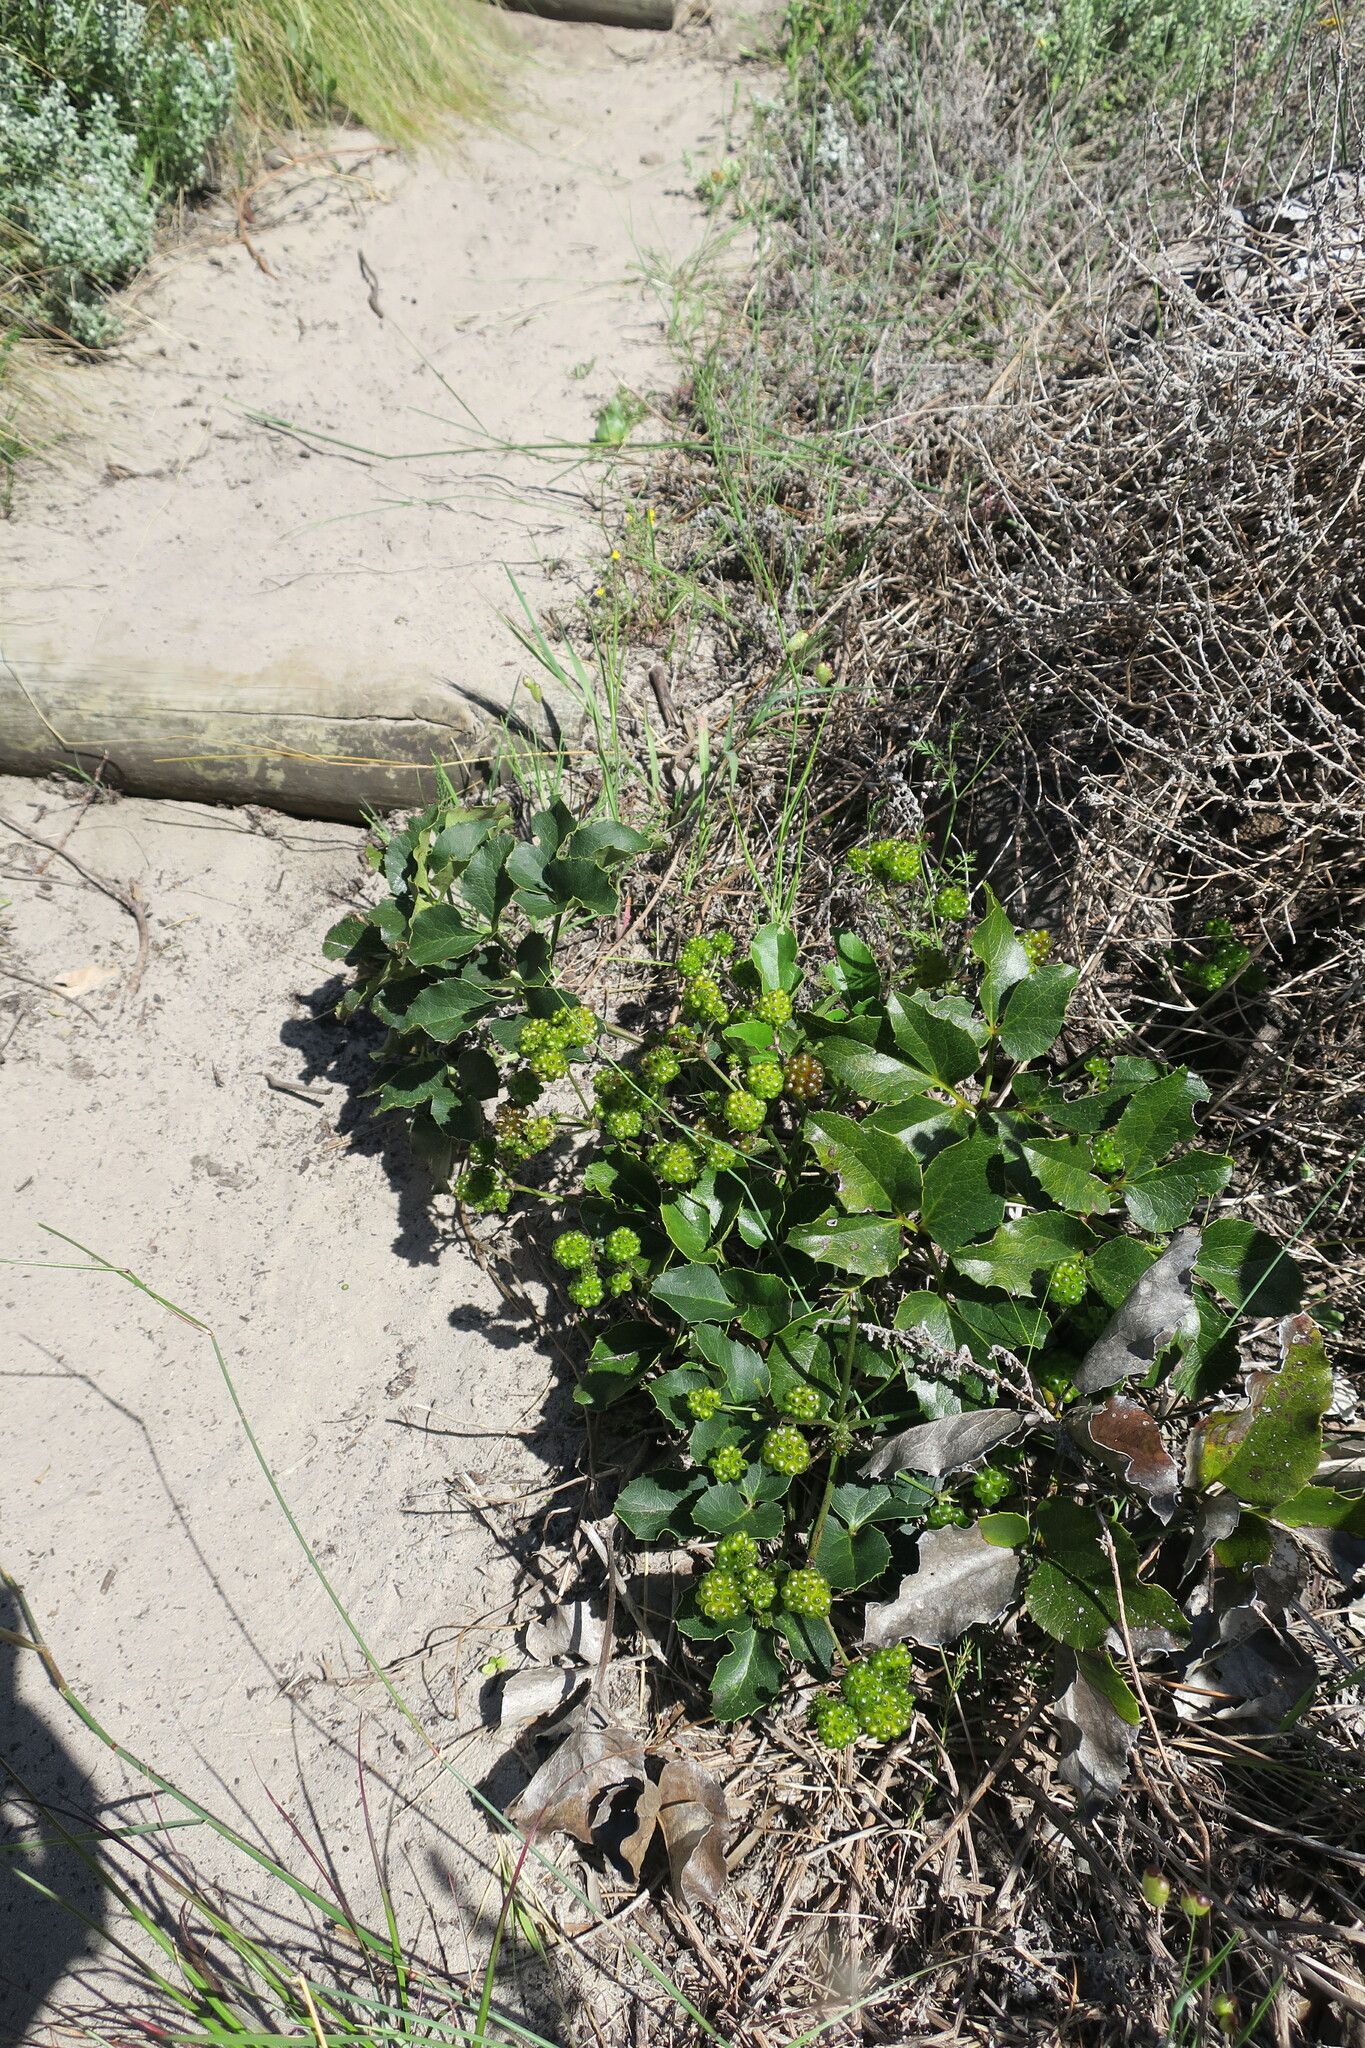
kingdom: Plantae
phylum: Tracheophyta
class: Magnoliopsida
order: Ranunculales
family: Ranunculaceae
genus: Knowltonia
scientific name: Knowltonia vesicatoria
